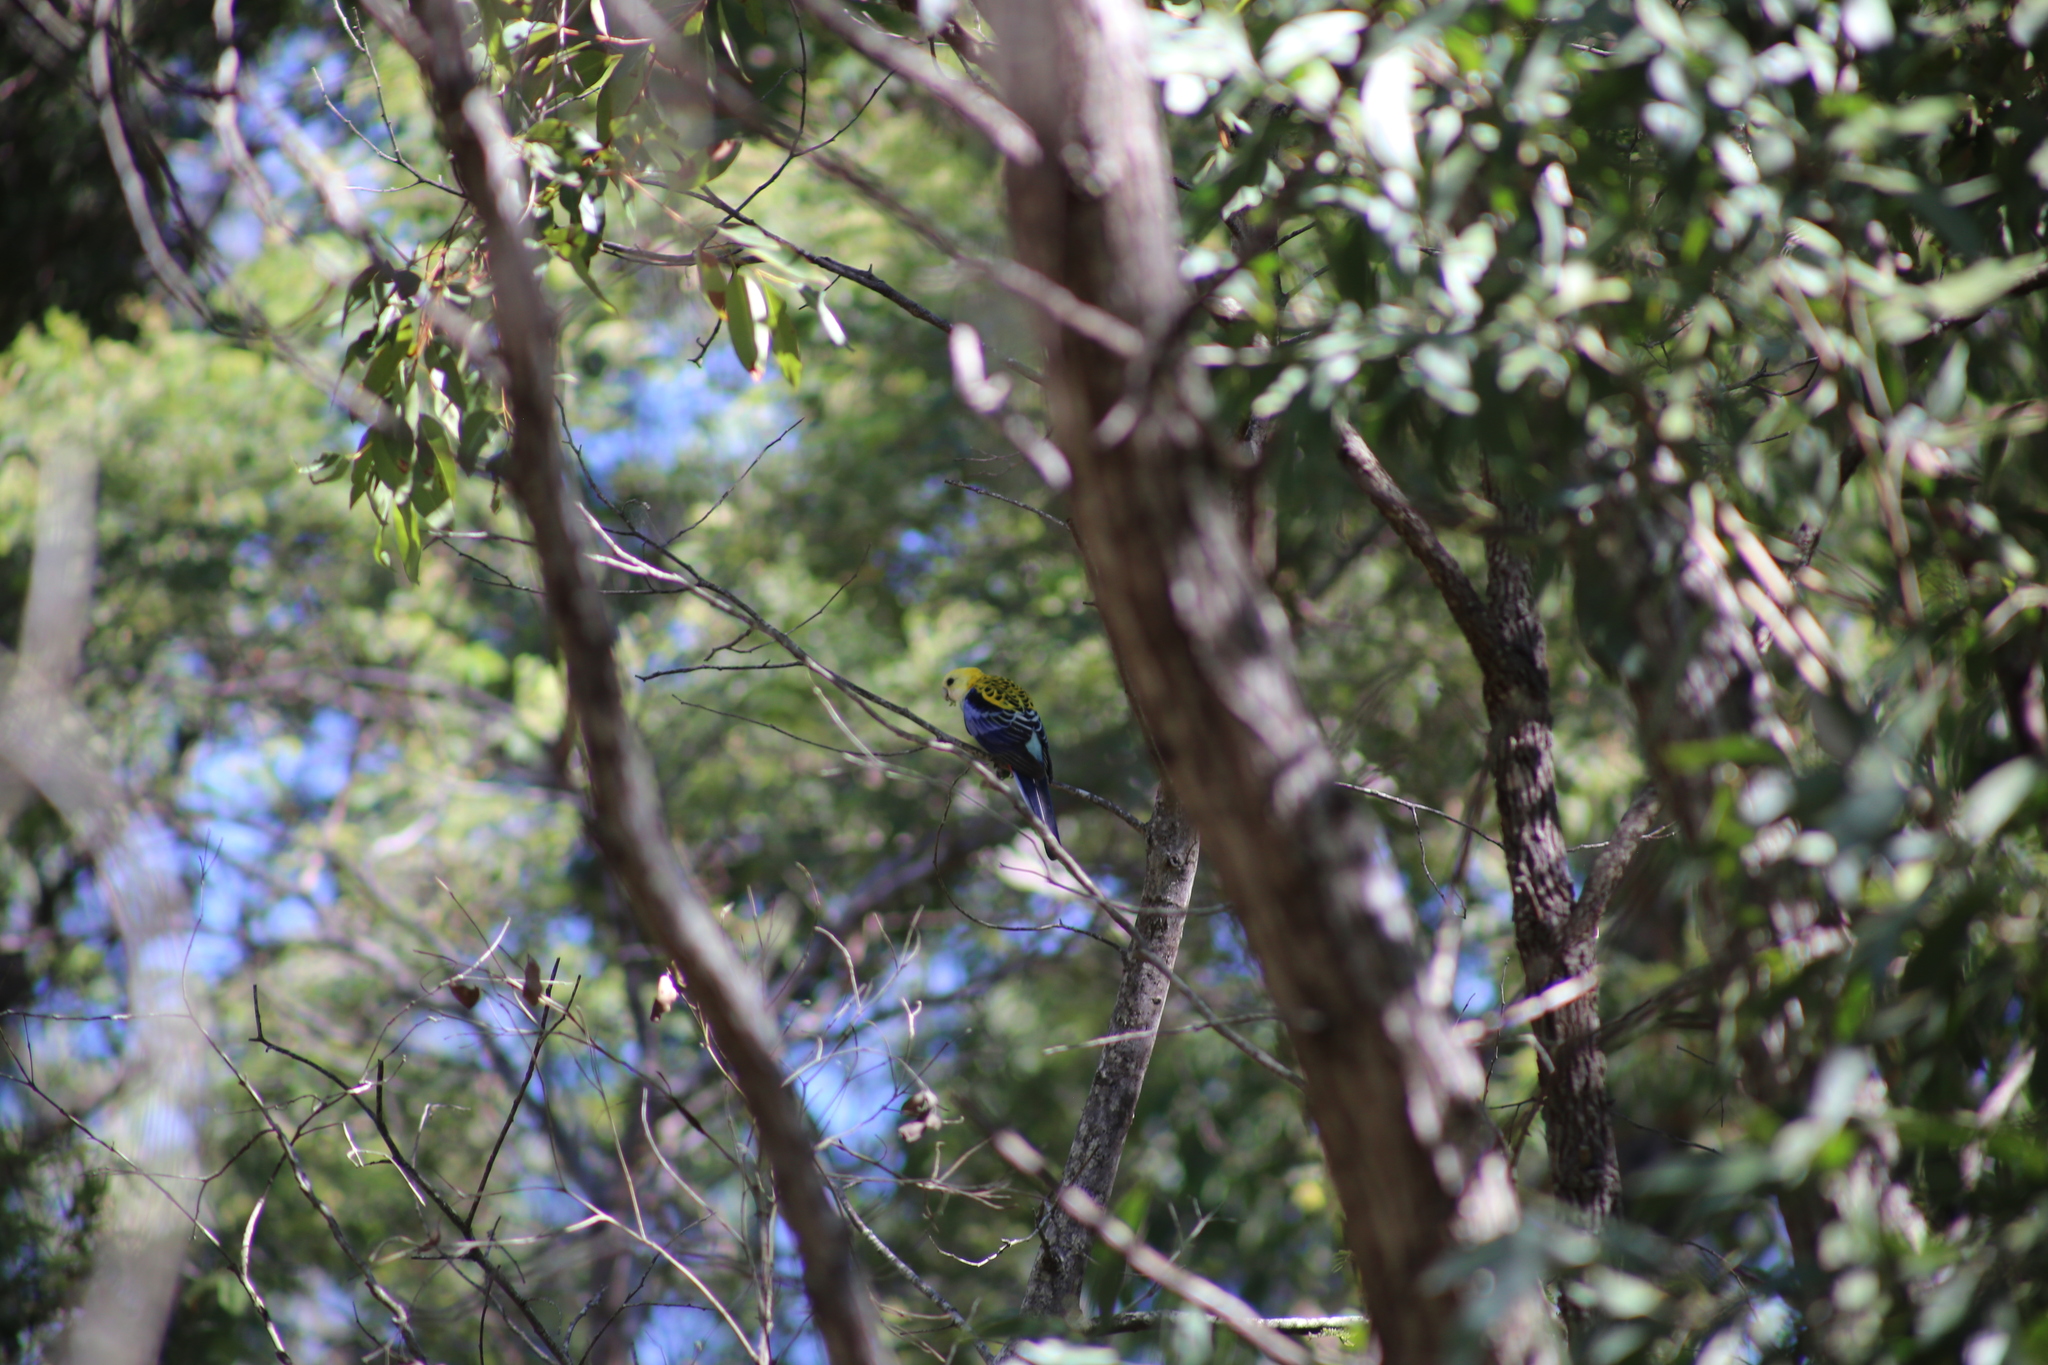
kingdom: Animalia
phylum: Chordata
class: Aves
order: Psittaciformes
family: Psittacidae
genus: Platycercus
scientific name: Platycercus adscitus
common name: Pale-headed rosella
